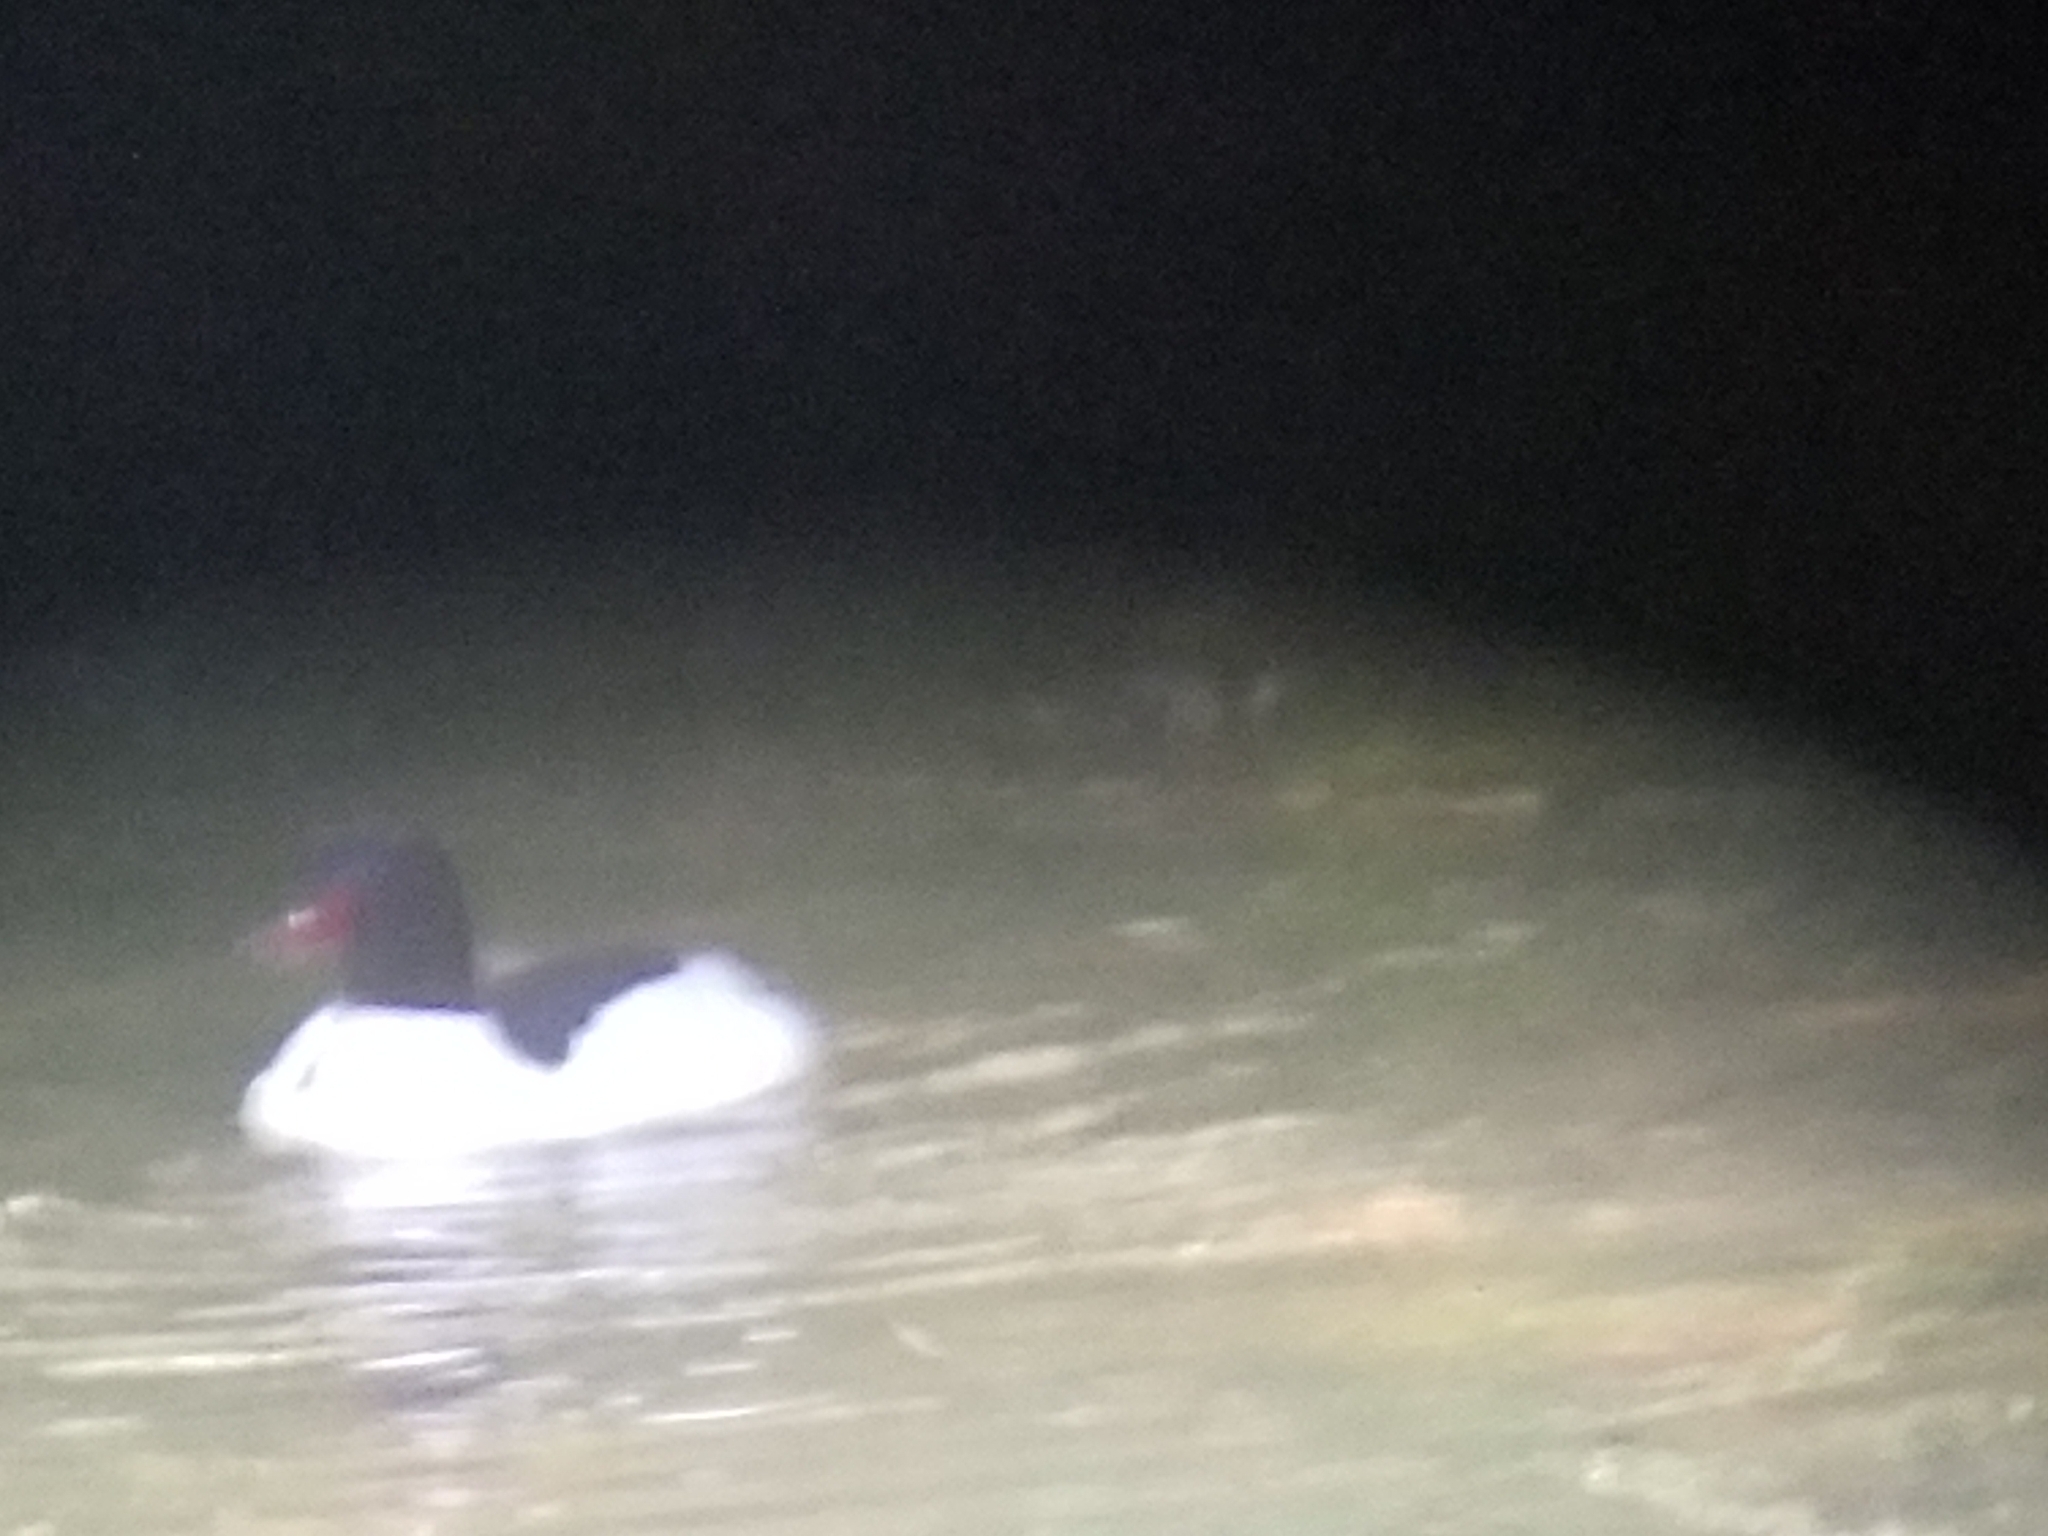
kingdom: Animalia
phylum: Chordata
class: Aves
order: Anseriformes
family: Anatidae
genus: Mergus
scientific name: Mergus merganser
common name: Common merganser
